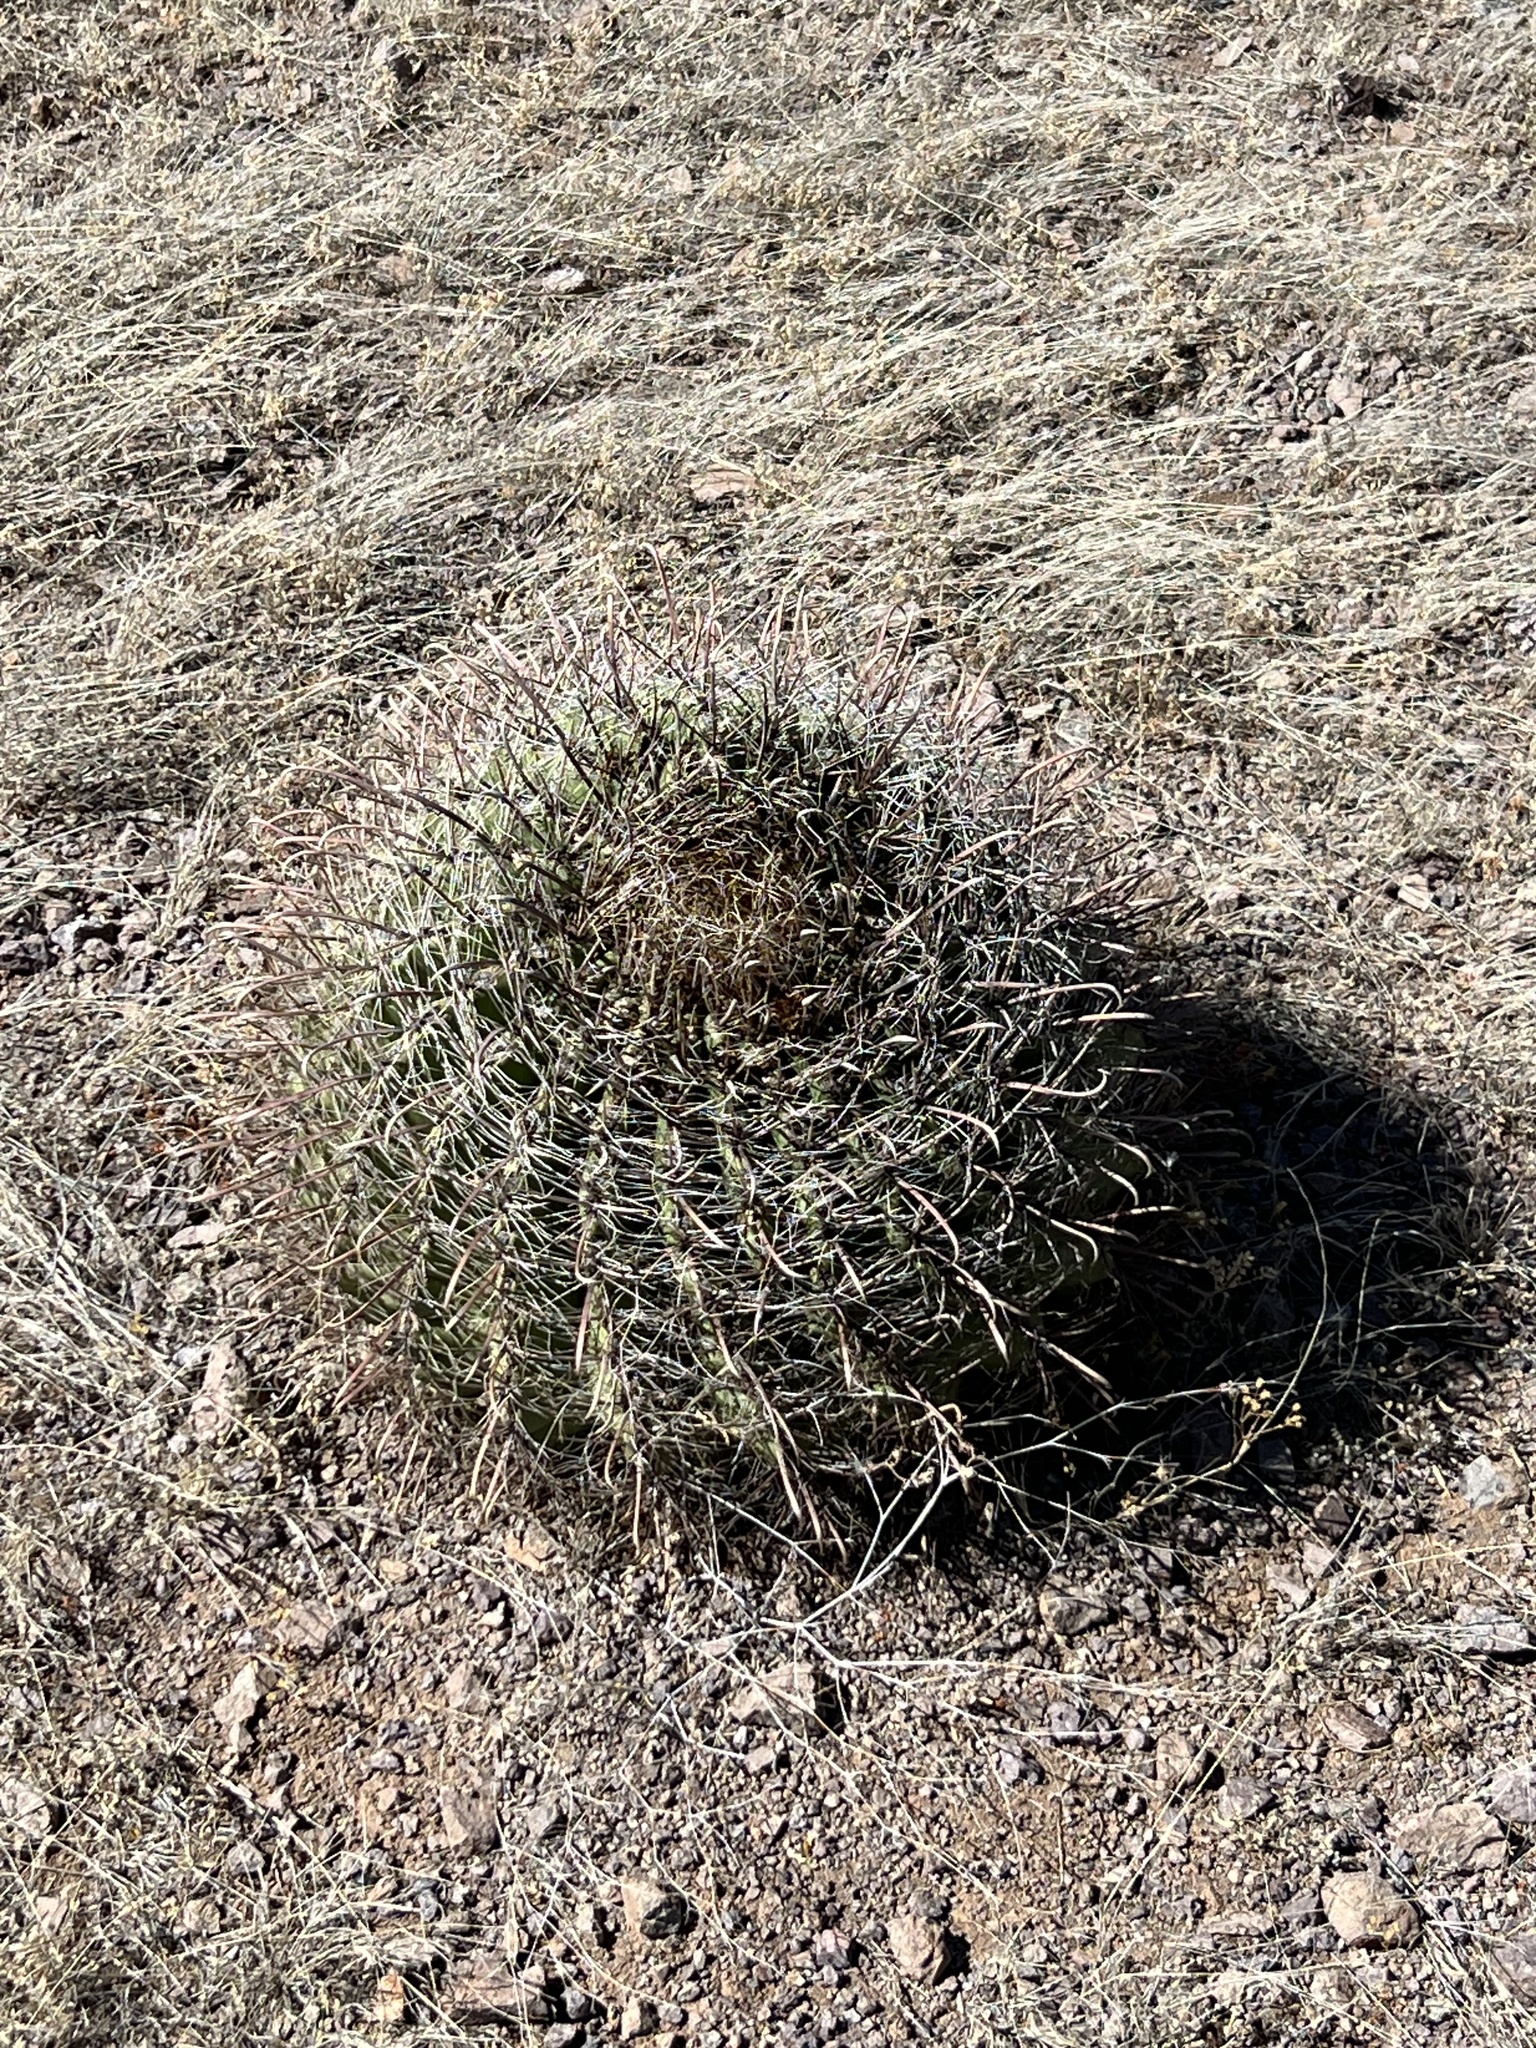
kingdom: Plantae
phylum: Tracheophyta
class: Magnoliopsida
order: Caryophyllales
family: Cactaceae
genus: Ferocactus
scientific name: Ferocactus wislizeni
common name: Candy barrel cactus
